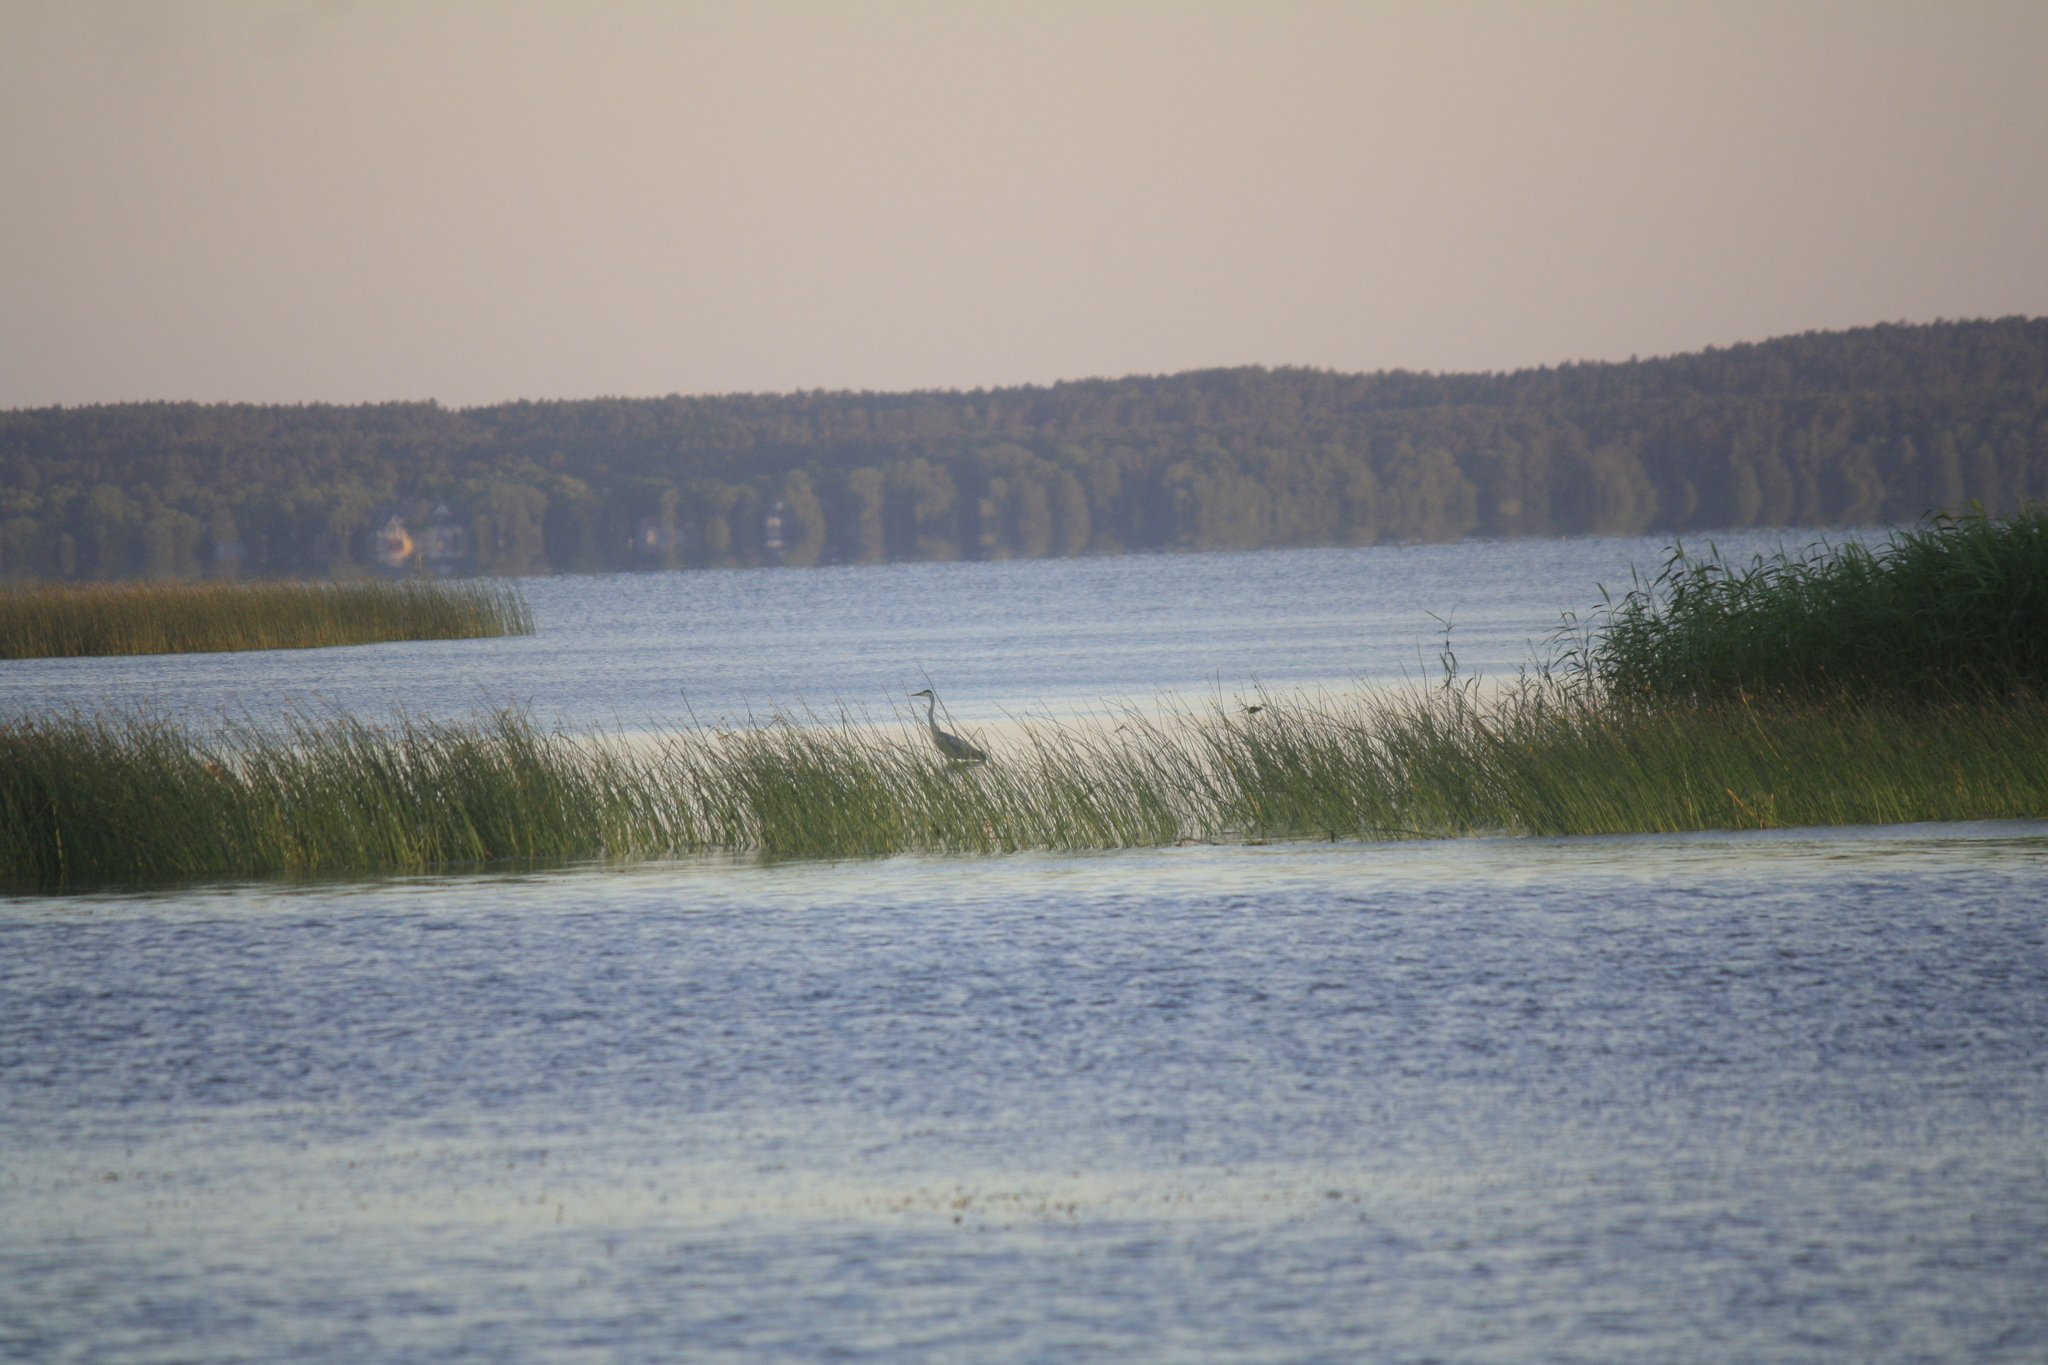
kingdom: Animalia
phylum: Chordata
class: Aves
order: Pelecaniformes
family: Ardeidae
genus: Ardea
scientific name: Ardea cinerea
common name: Grey heron
